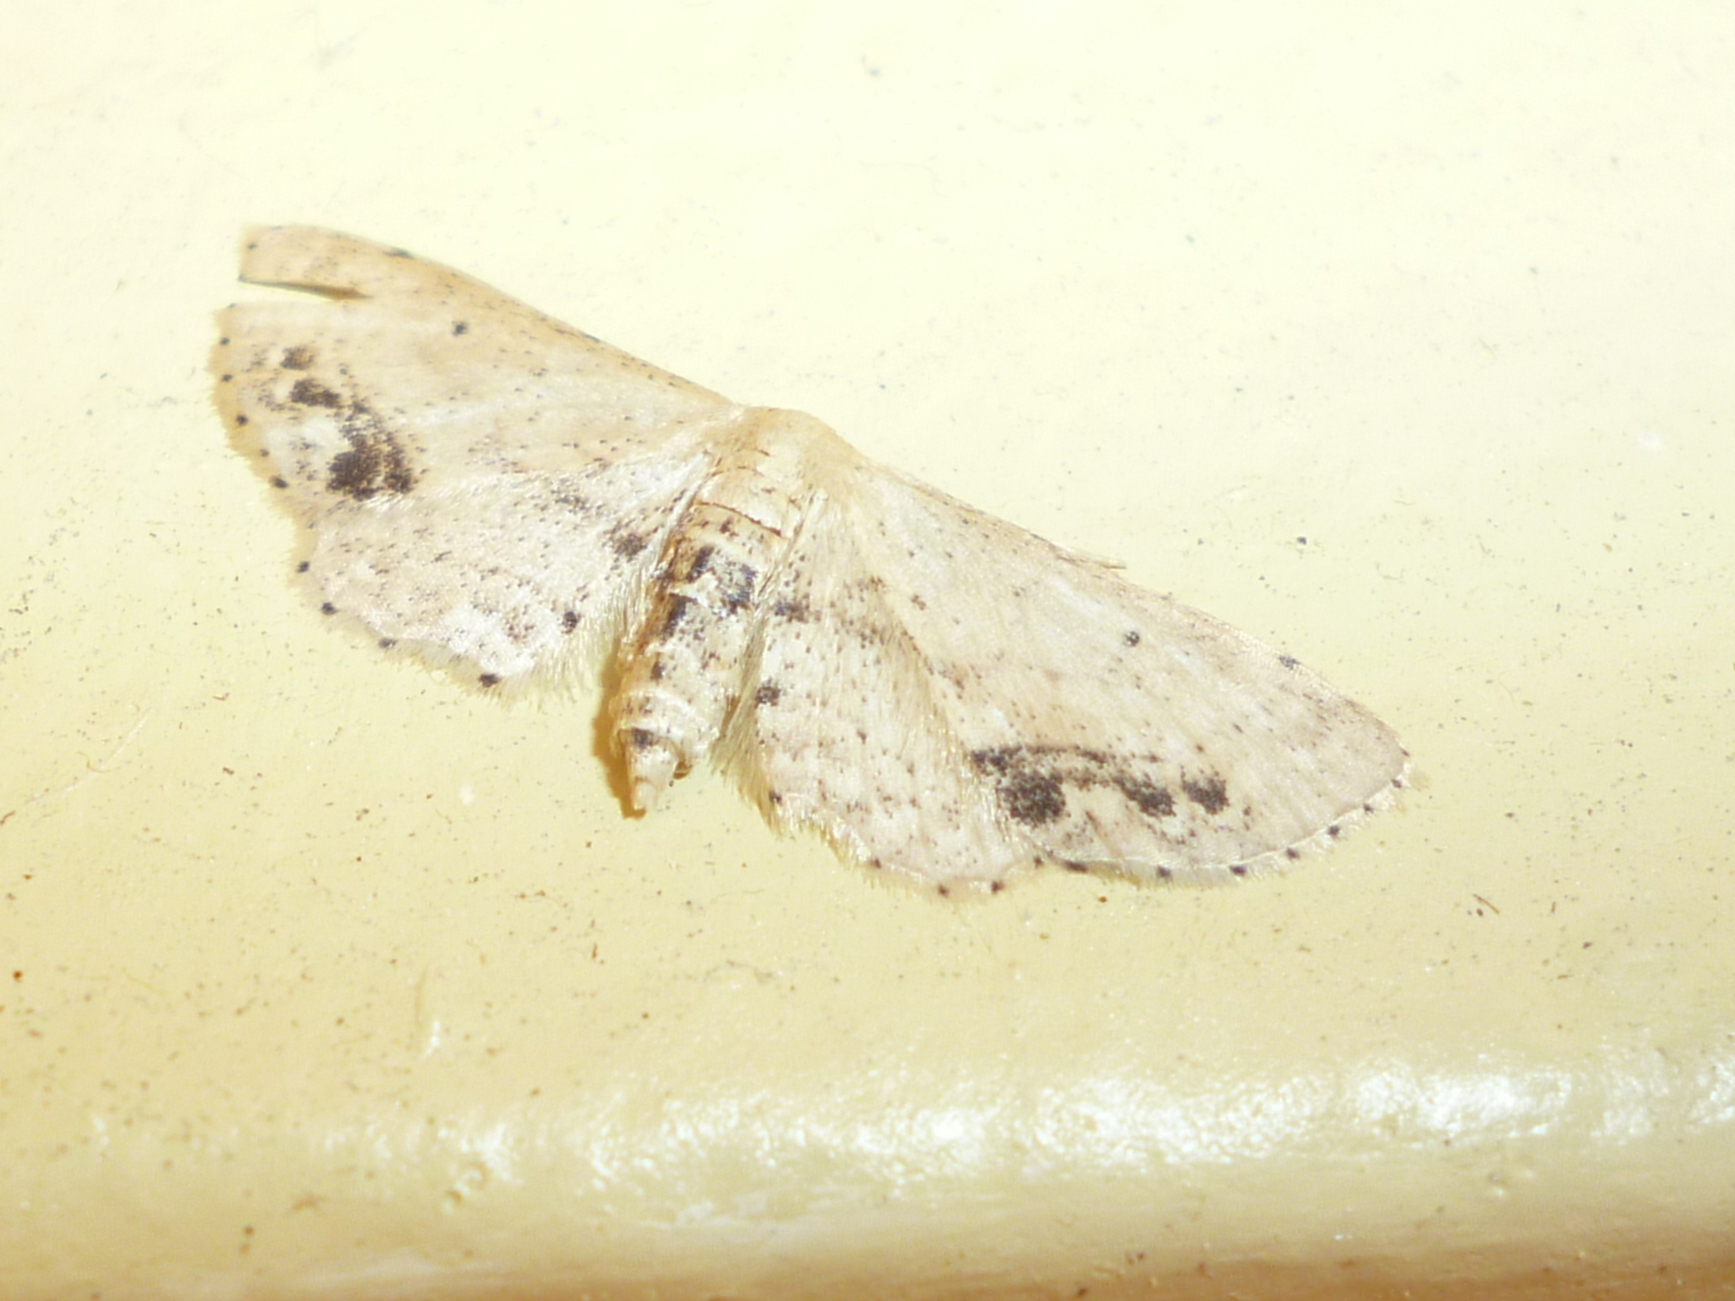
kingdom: Animalia
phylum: Arthropoda
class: Insecta
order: Lepidoptera
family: Geometridae
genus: Idaea
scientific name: Idaea dimidiata
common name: Single-dotted wave
